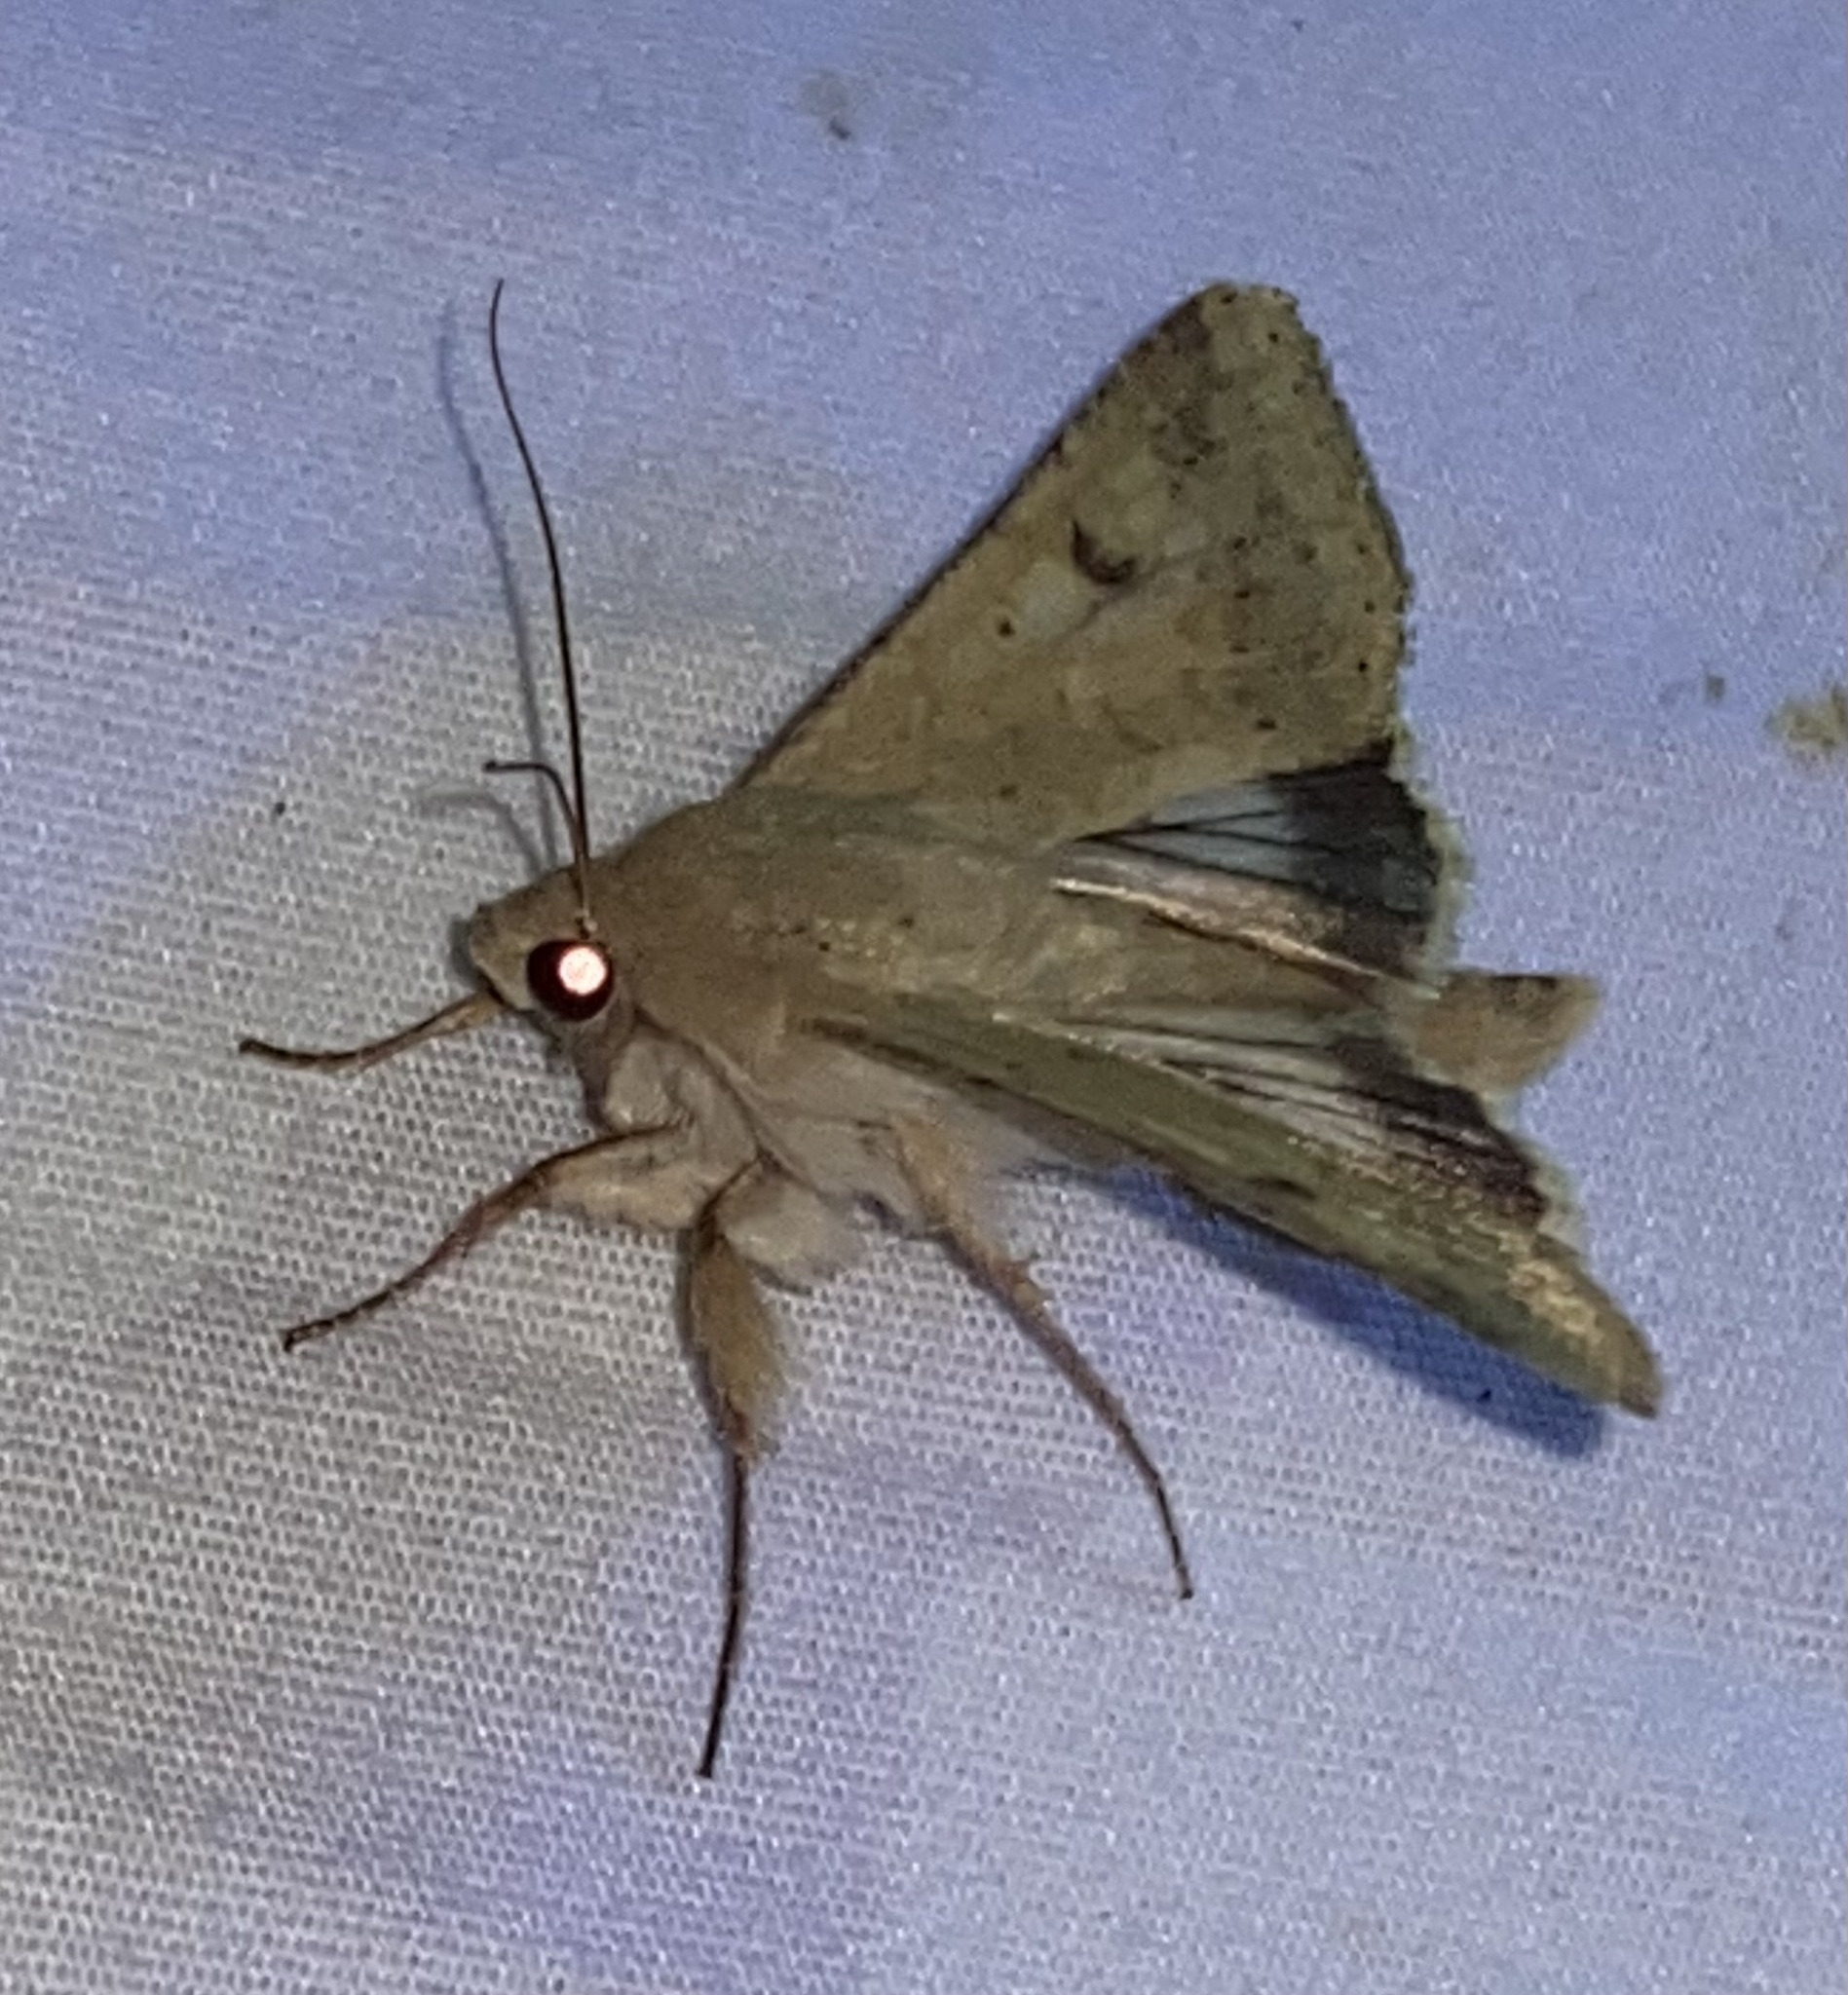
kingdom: Animalia
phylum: Arthropoda
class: Insecta
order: Lepidoptera
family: Noctuidae
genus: Helicoverpa
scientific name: Helicoverpa zea
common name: Bollworm
